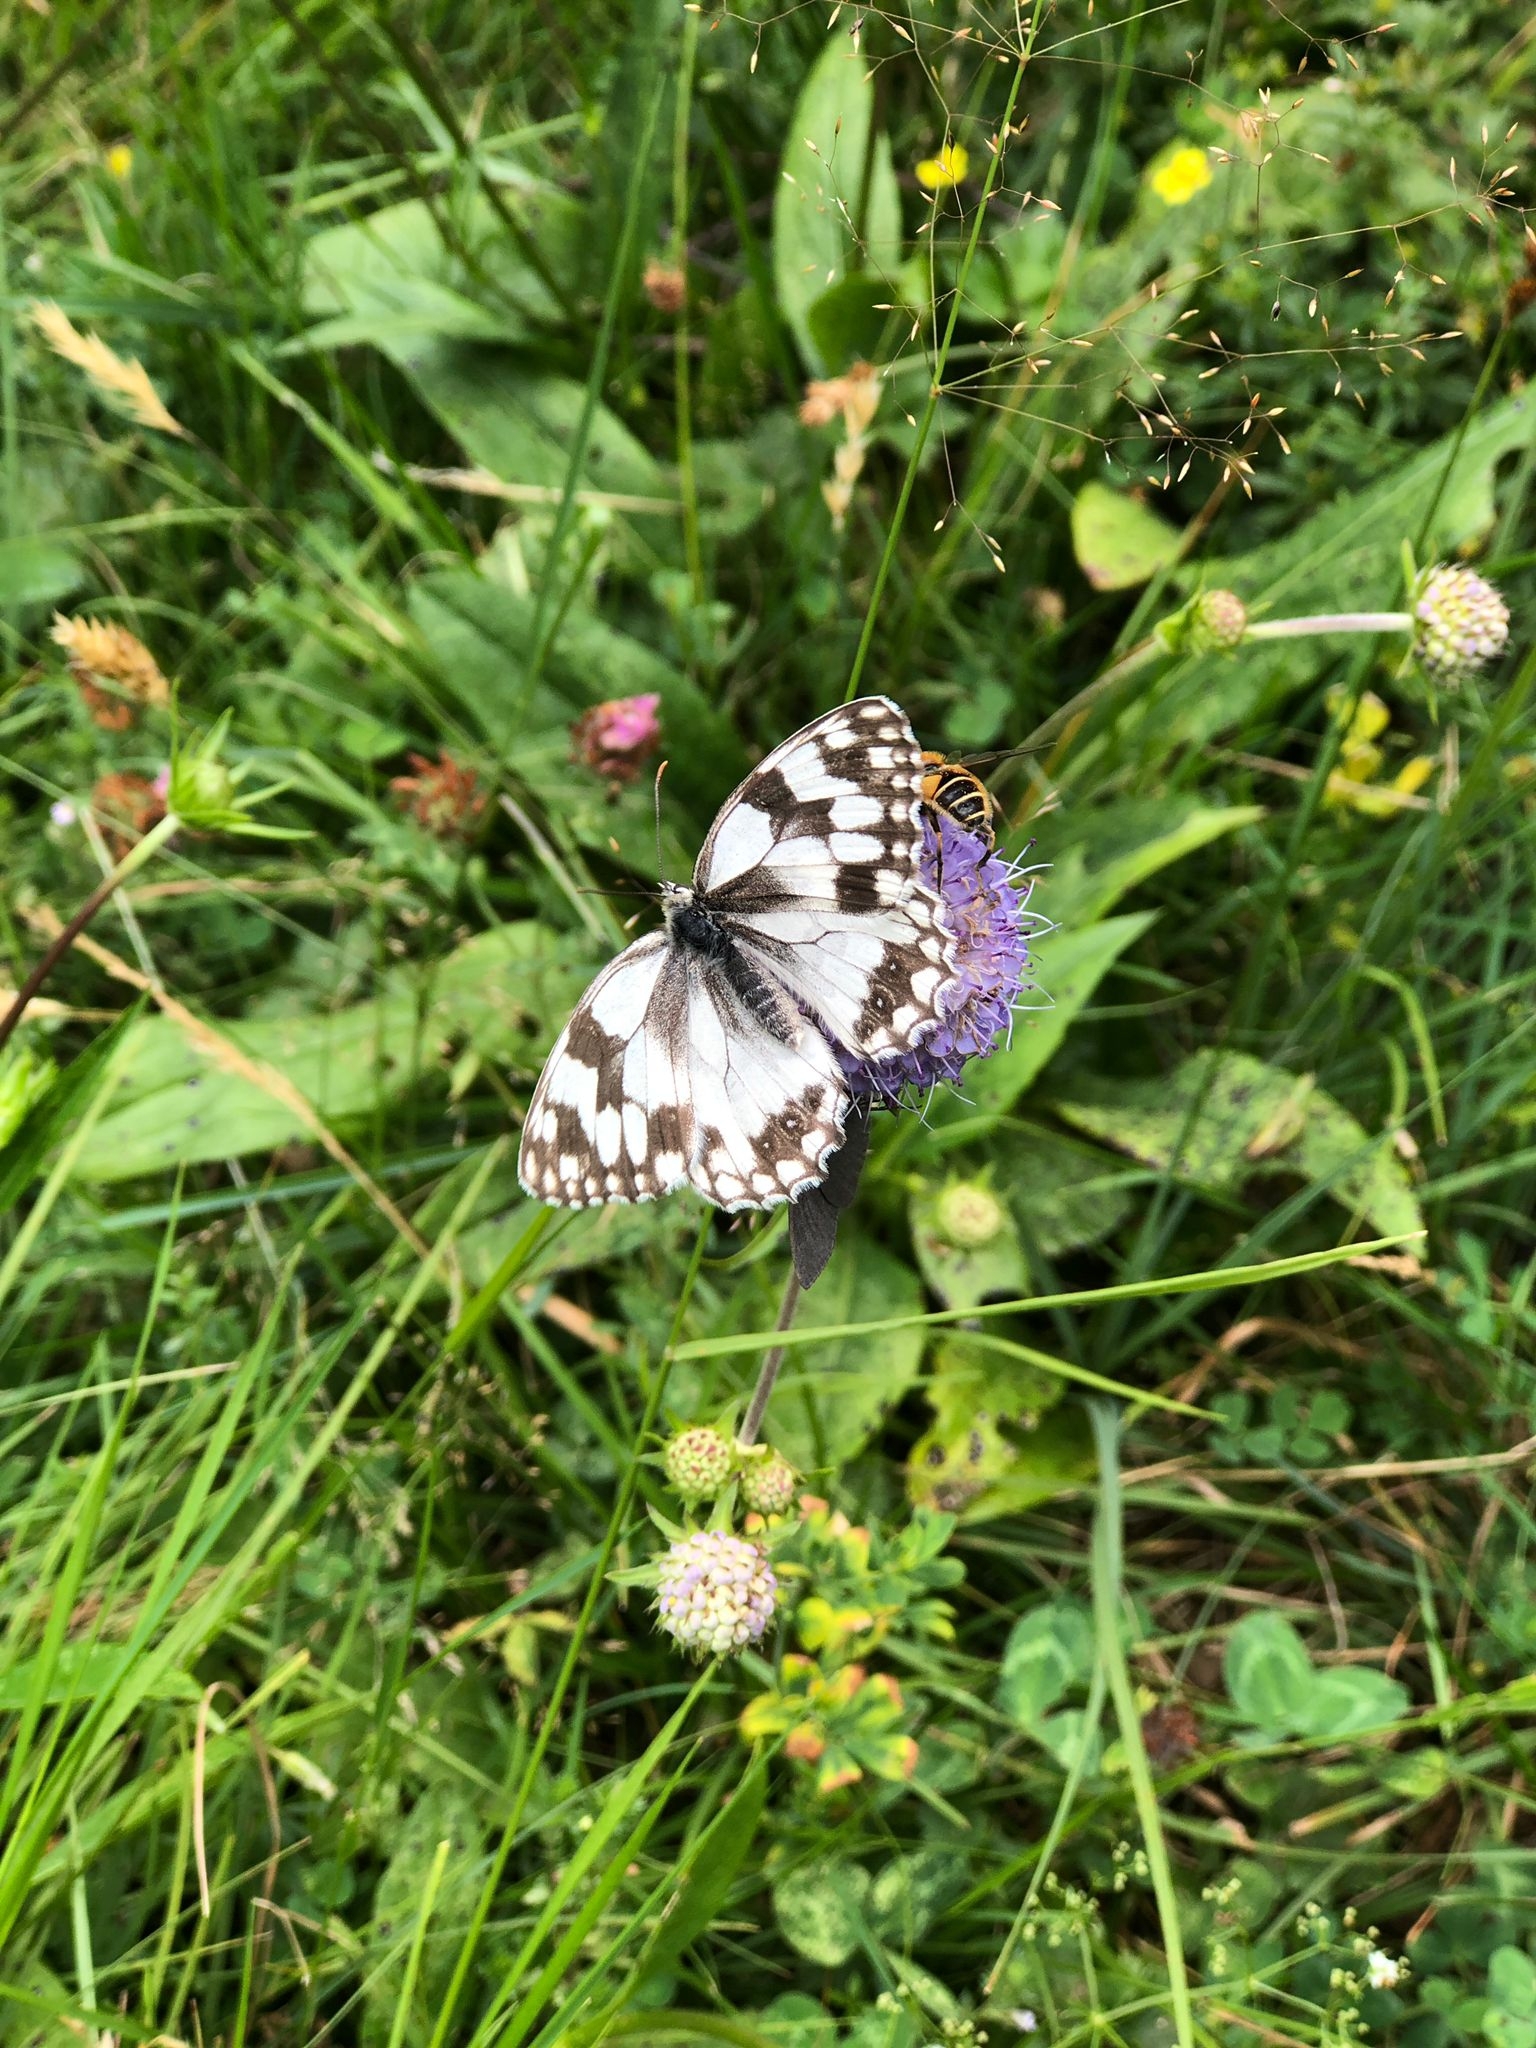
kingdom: Animalia
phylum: Arthropoda
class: Insecta
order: Lepidoptera
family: Nymphalidae
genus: Melanargia
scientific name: Melanargia lachesis
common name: Iberian marbled white
